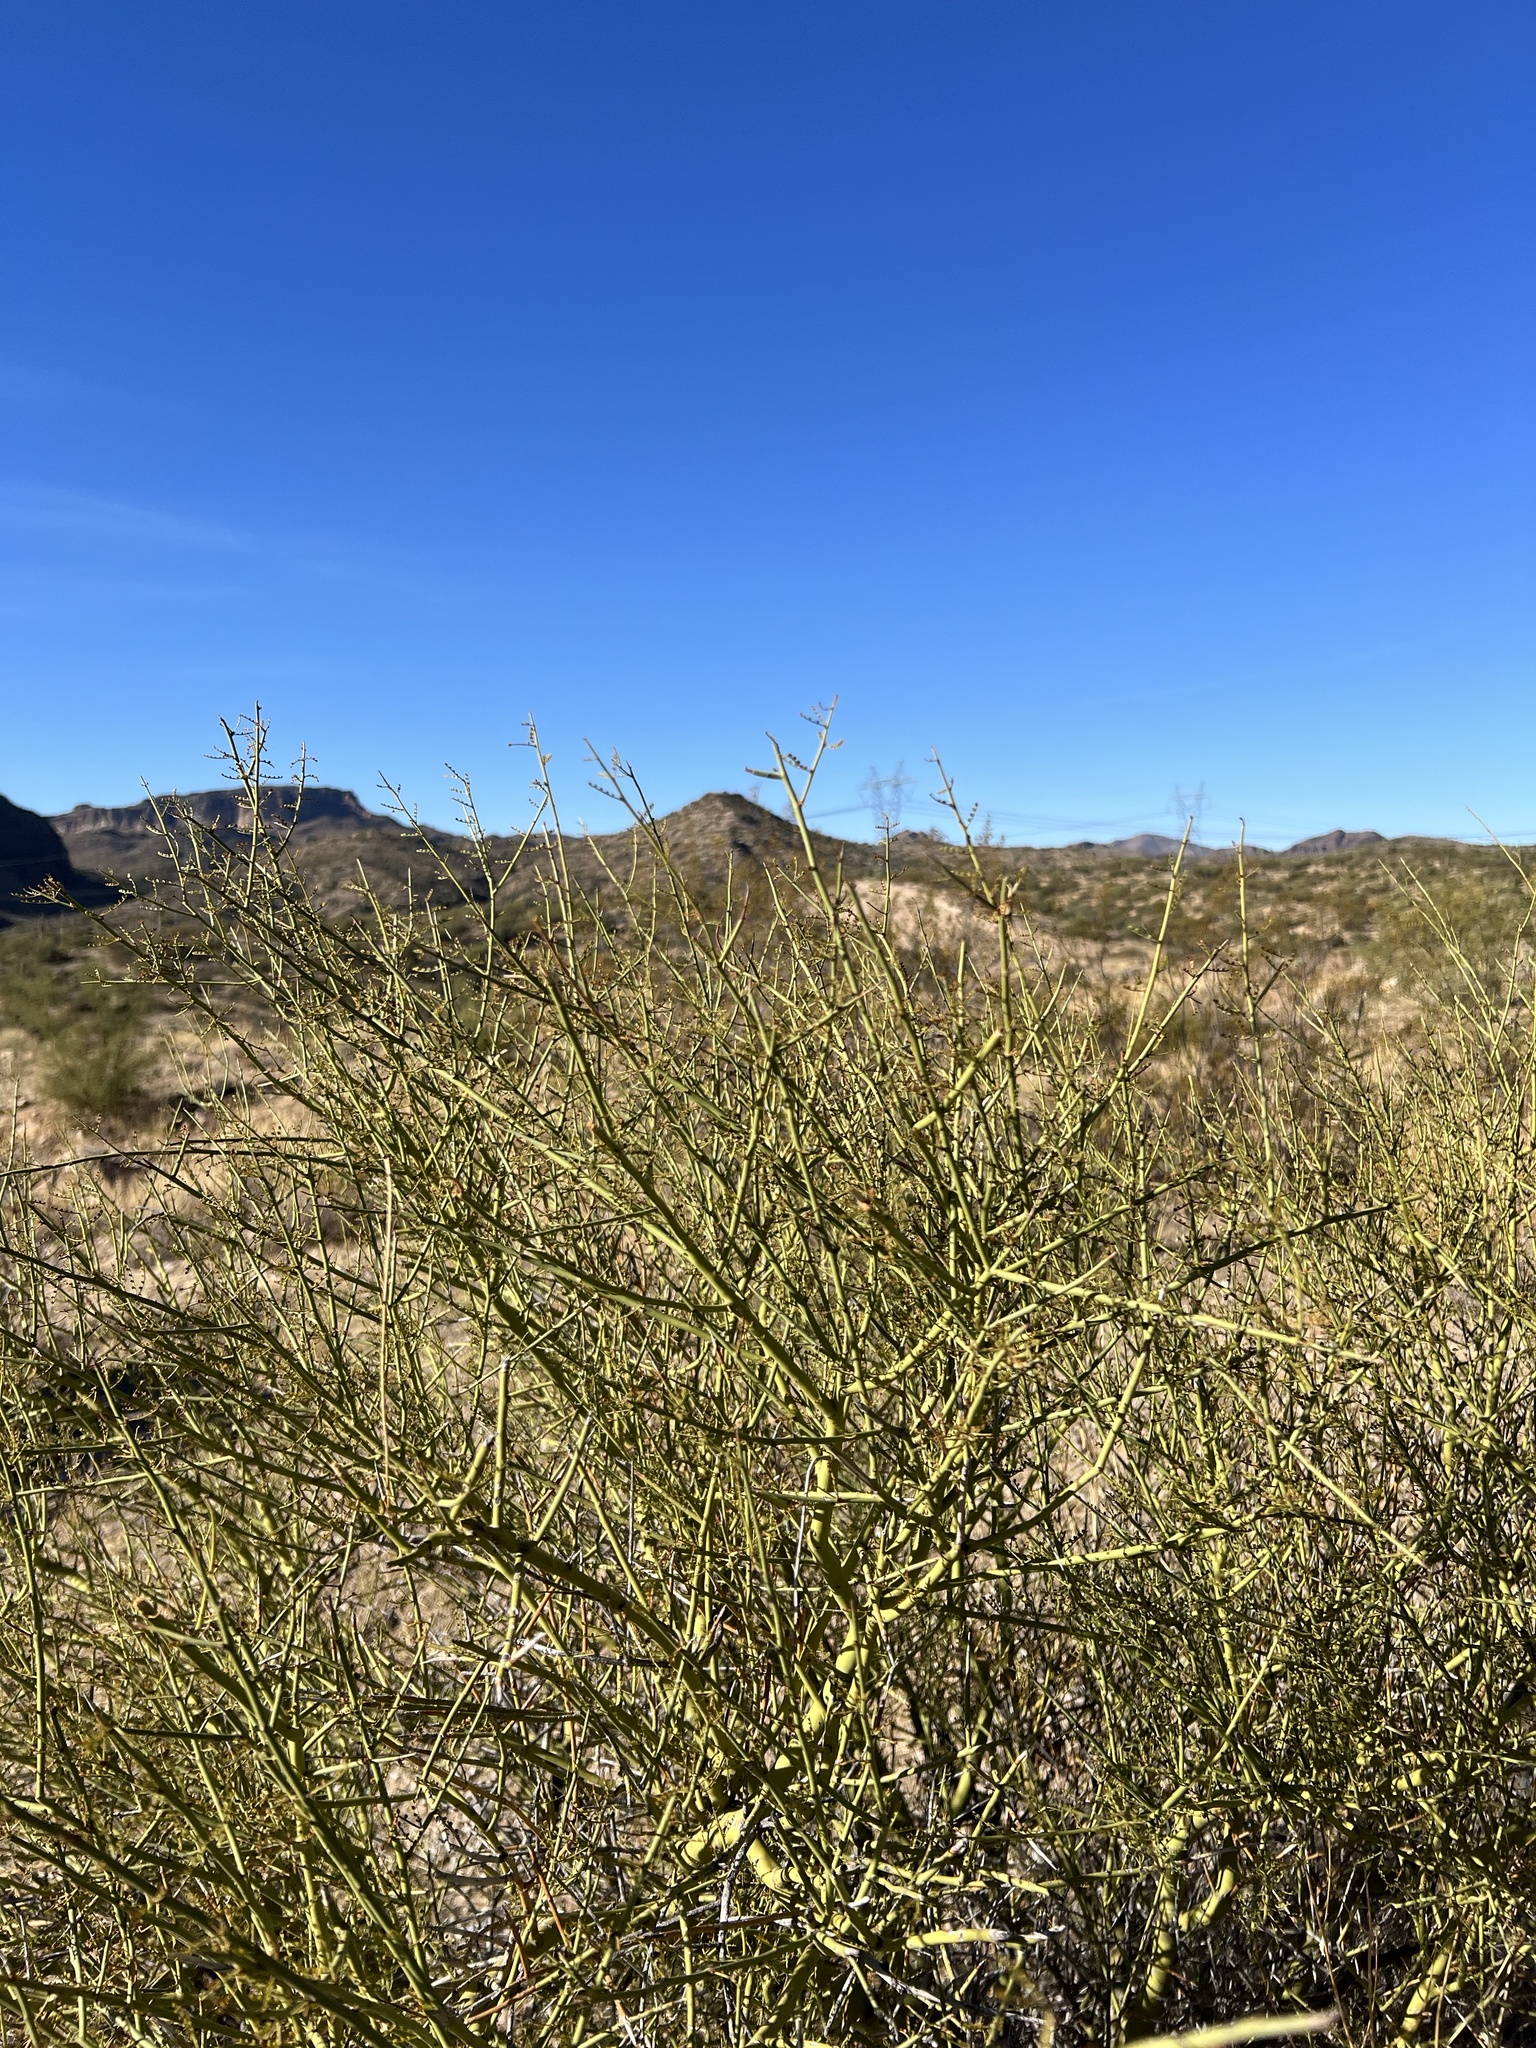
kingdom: Plantae
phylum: Tracheophyta
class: Magnoliopsida
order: Fabales
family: Fabaceae
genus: Parkinsonia
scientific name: Parkinsonia microphylla
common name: Yellow paloverde
